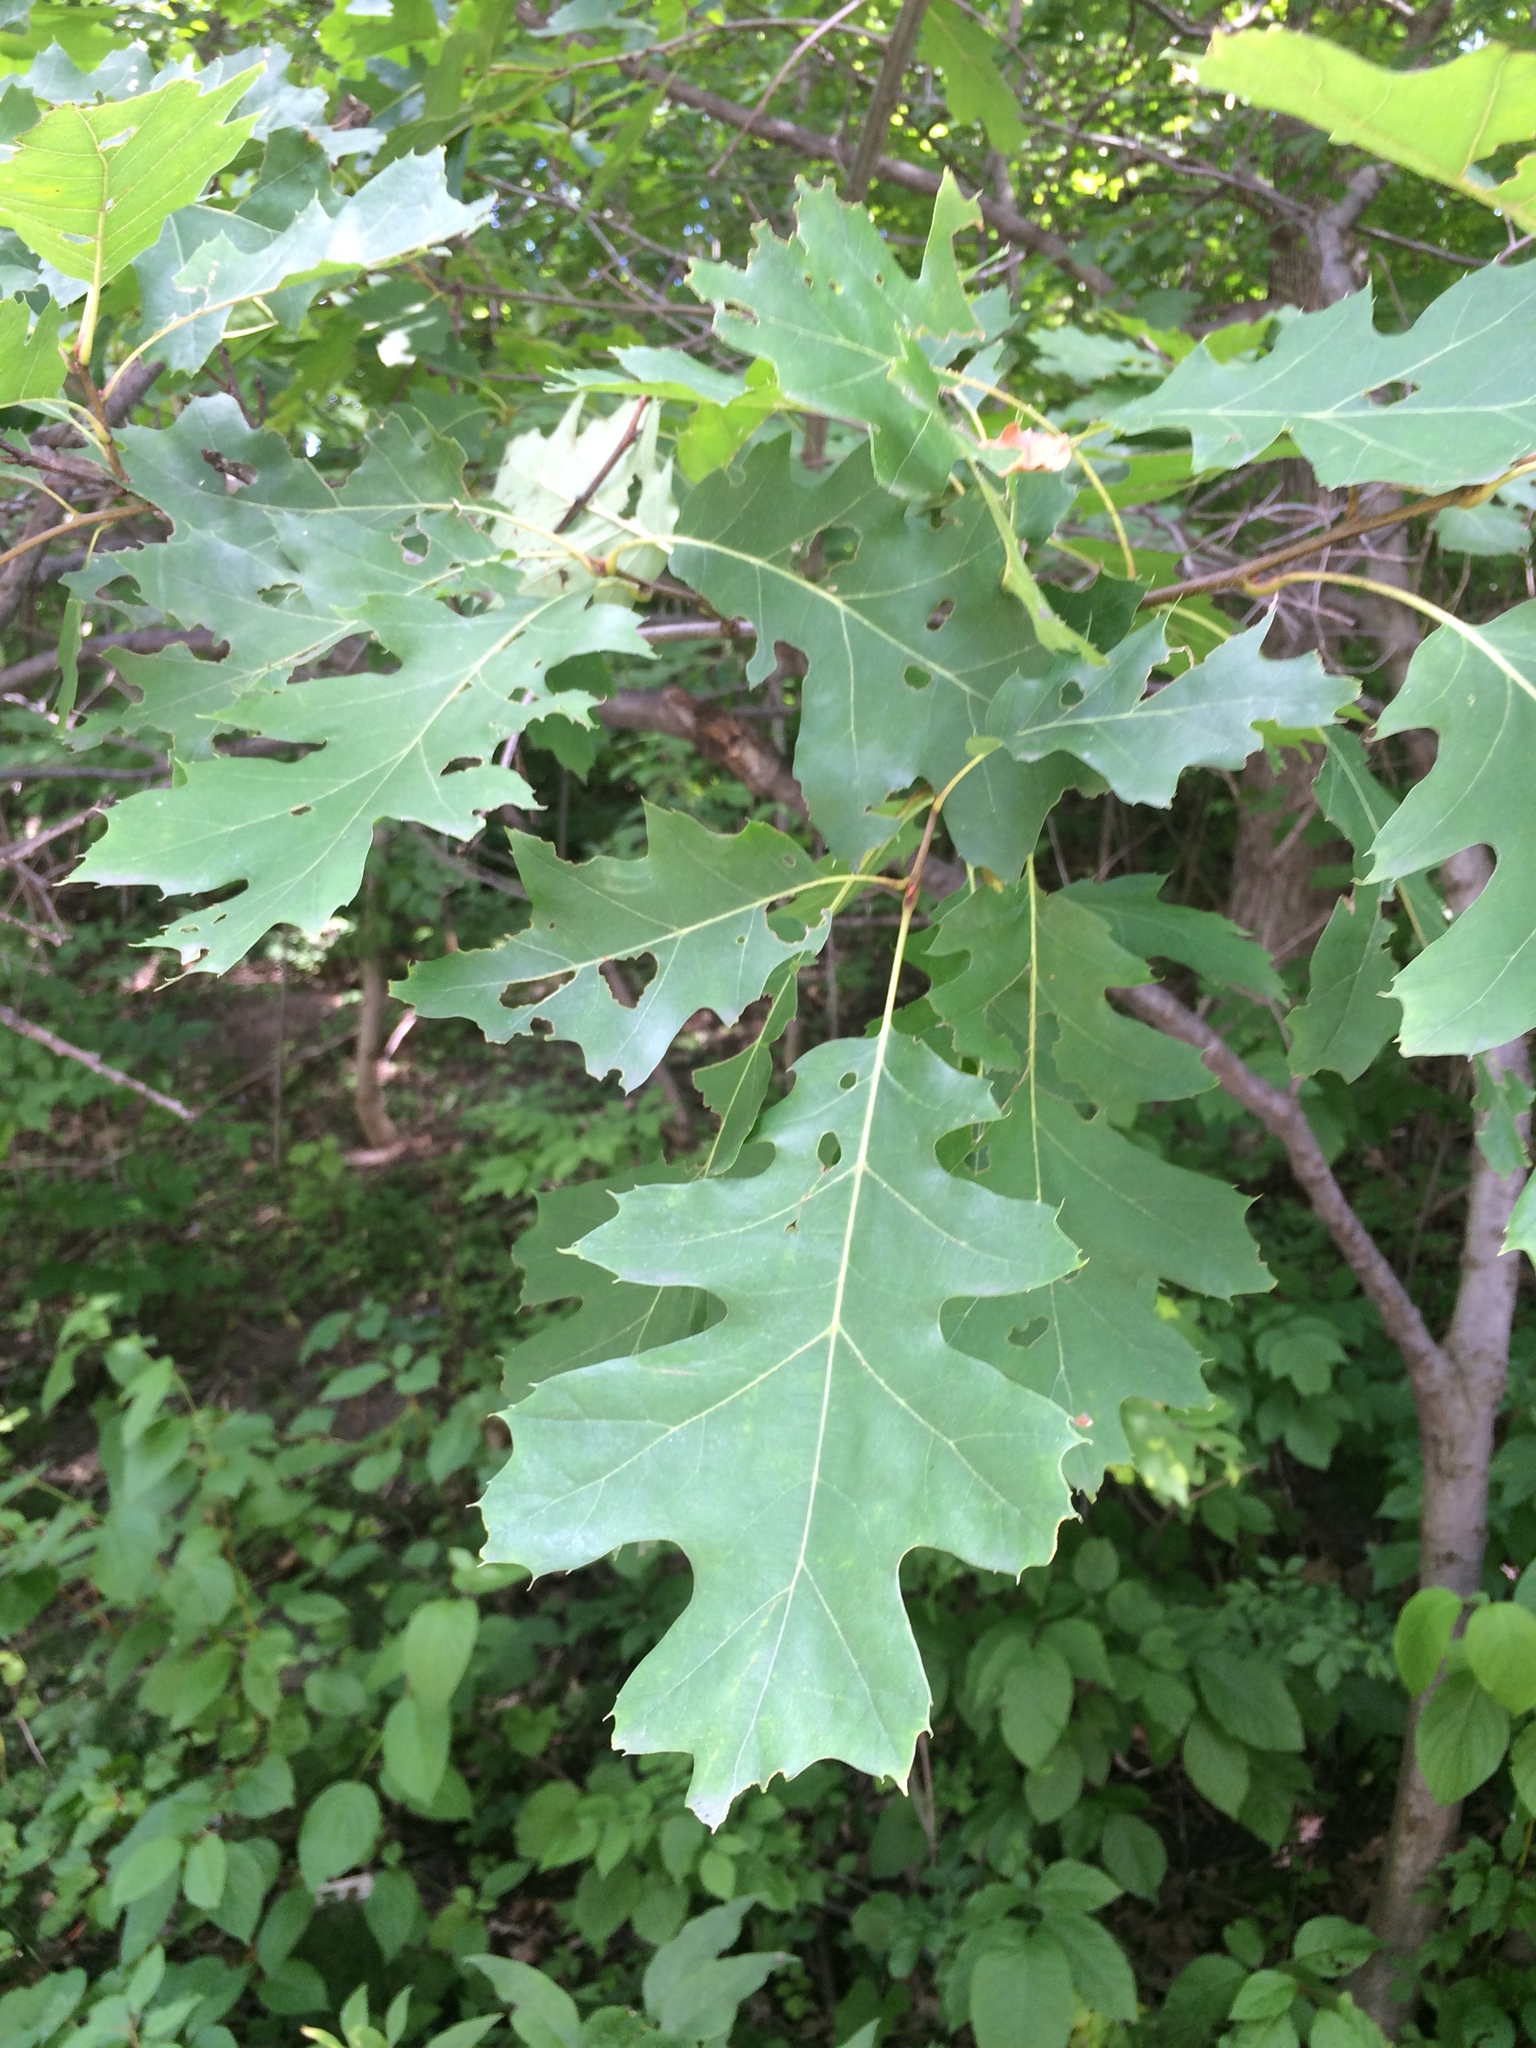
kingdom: Plantae
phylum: Tracheophyta
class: Magnoliopsida
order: Fagales
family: Fagaceae
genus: Quercus
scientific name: Quercus rubra
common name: Red oak
